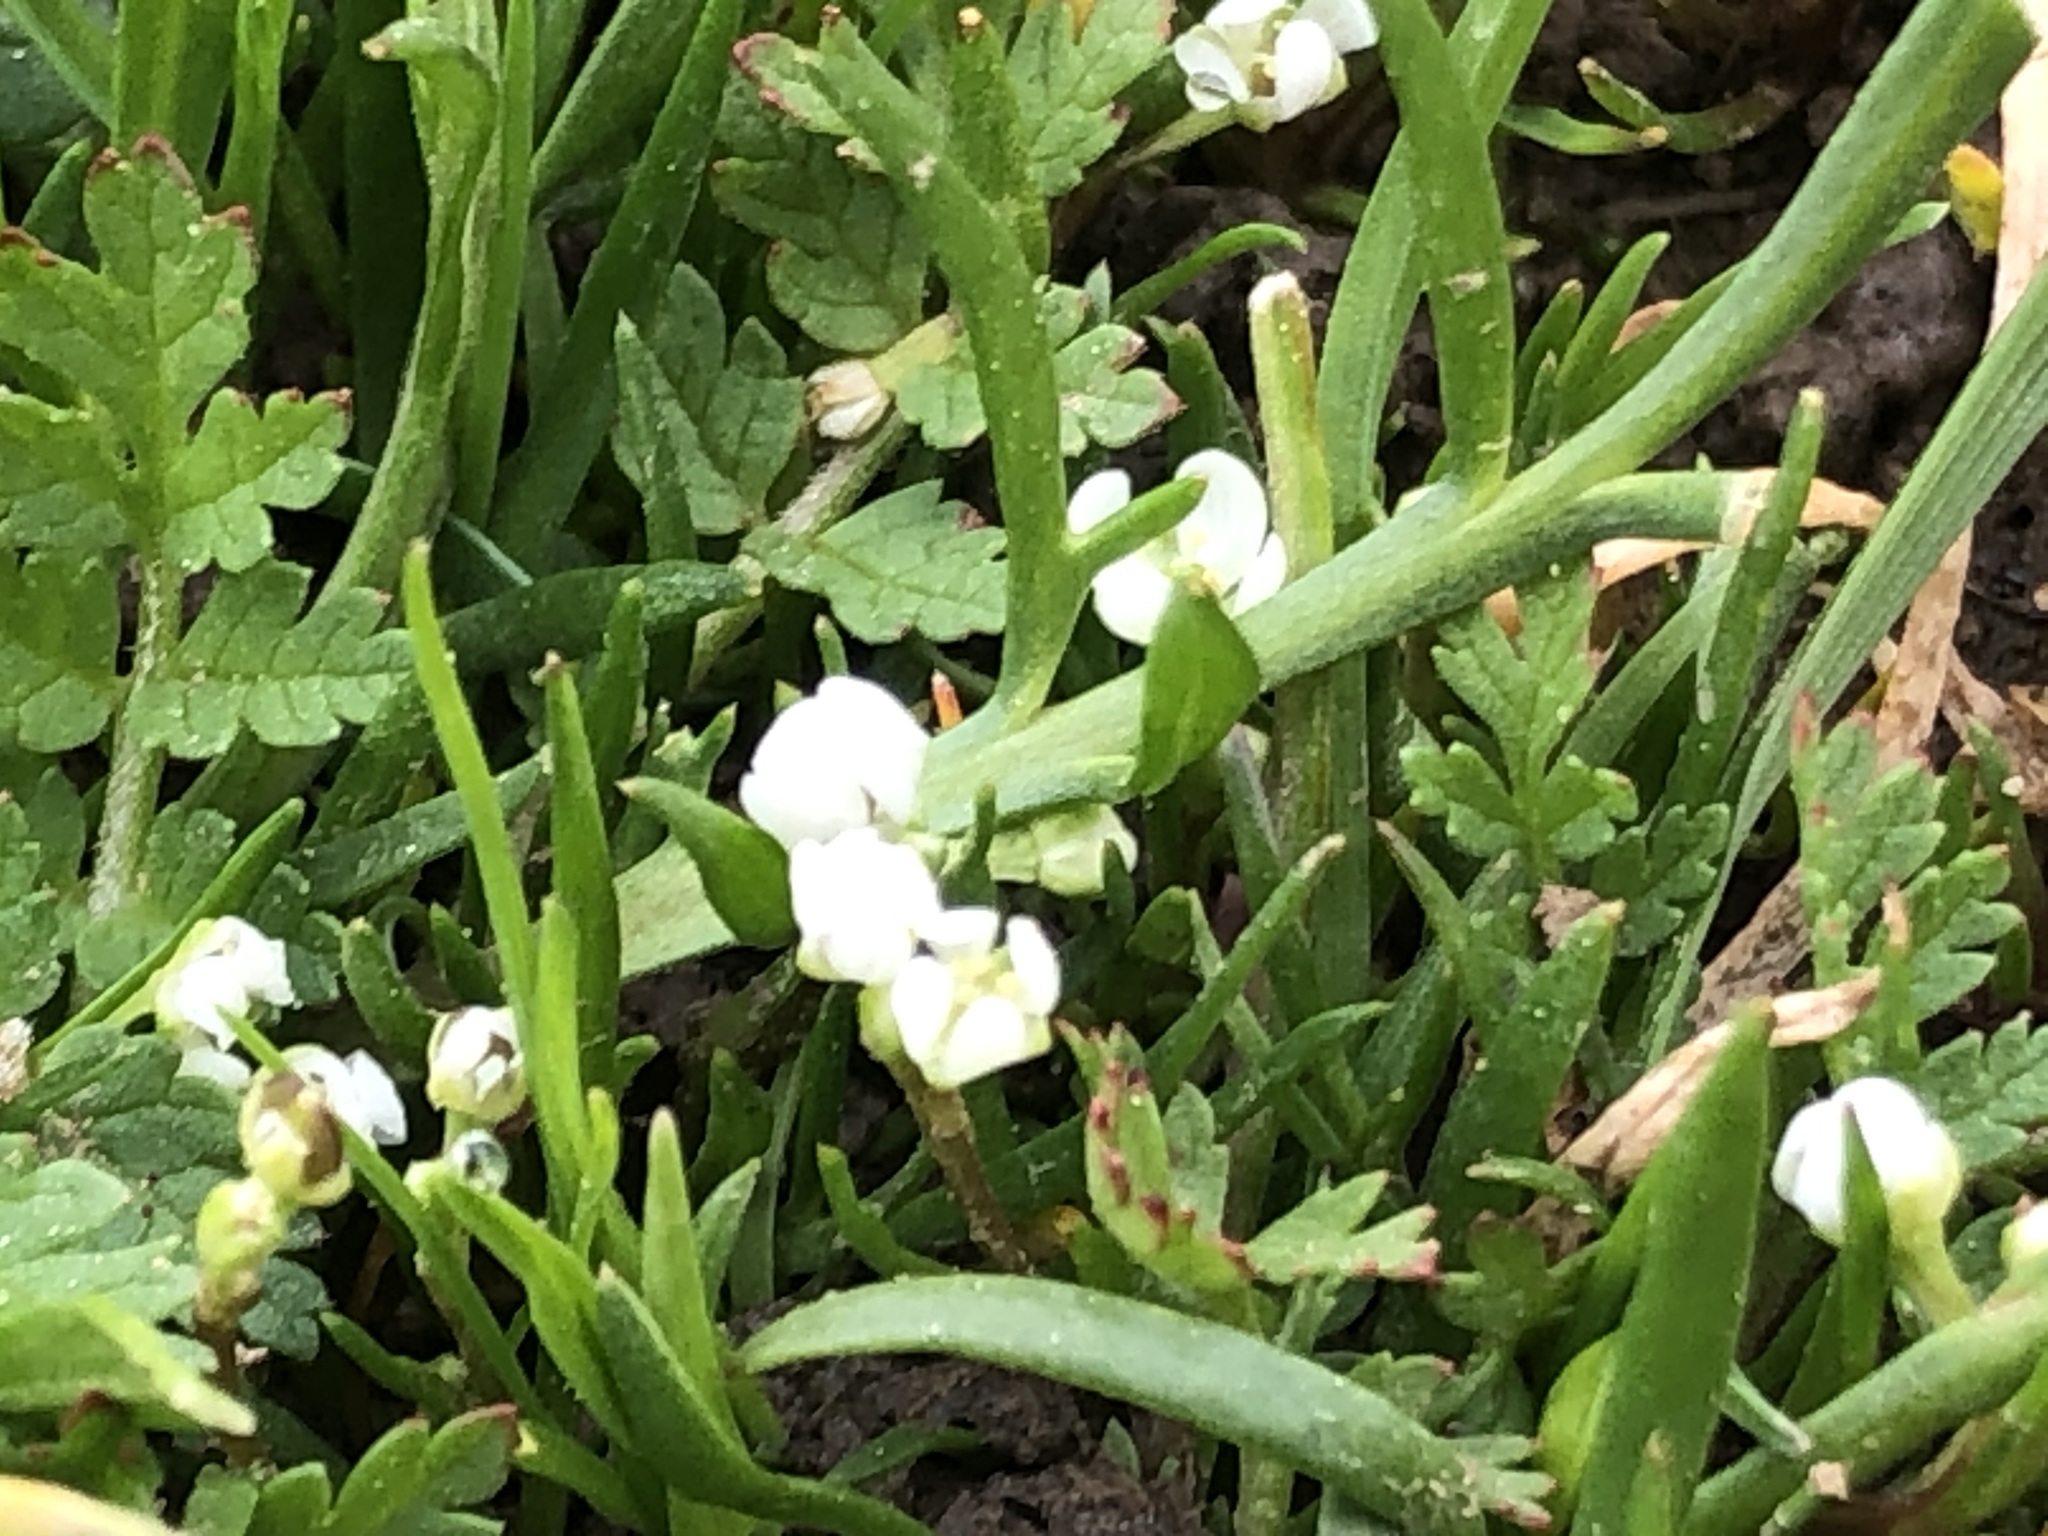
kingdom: Plantae
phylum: Tracheophyta
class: Magnoliopsida
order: Brassicales
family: Brassicaceae
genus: Lepidium
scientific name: Lepidium nitidum
